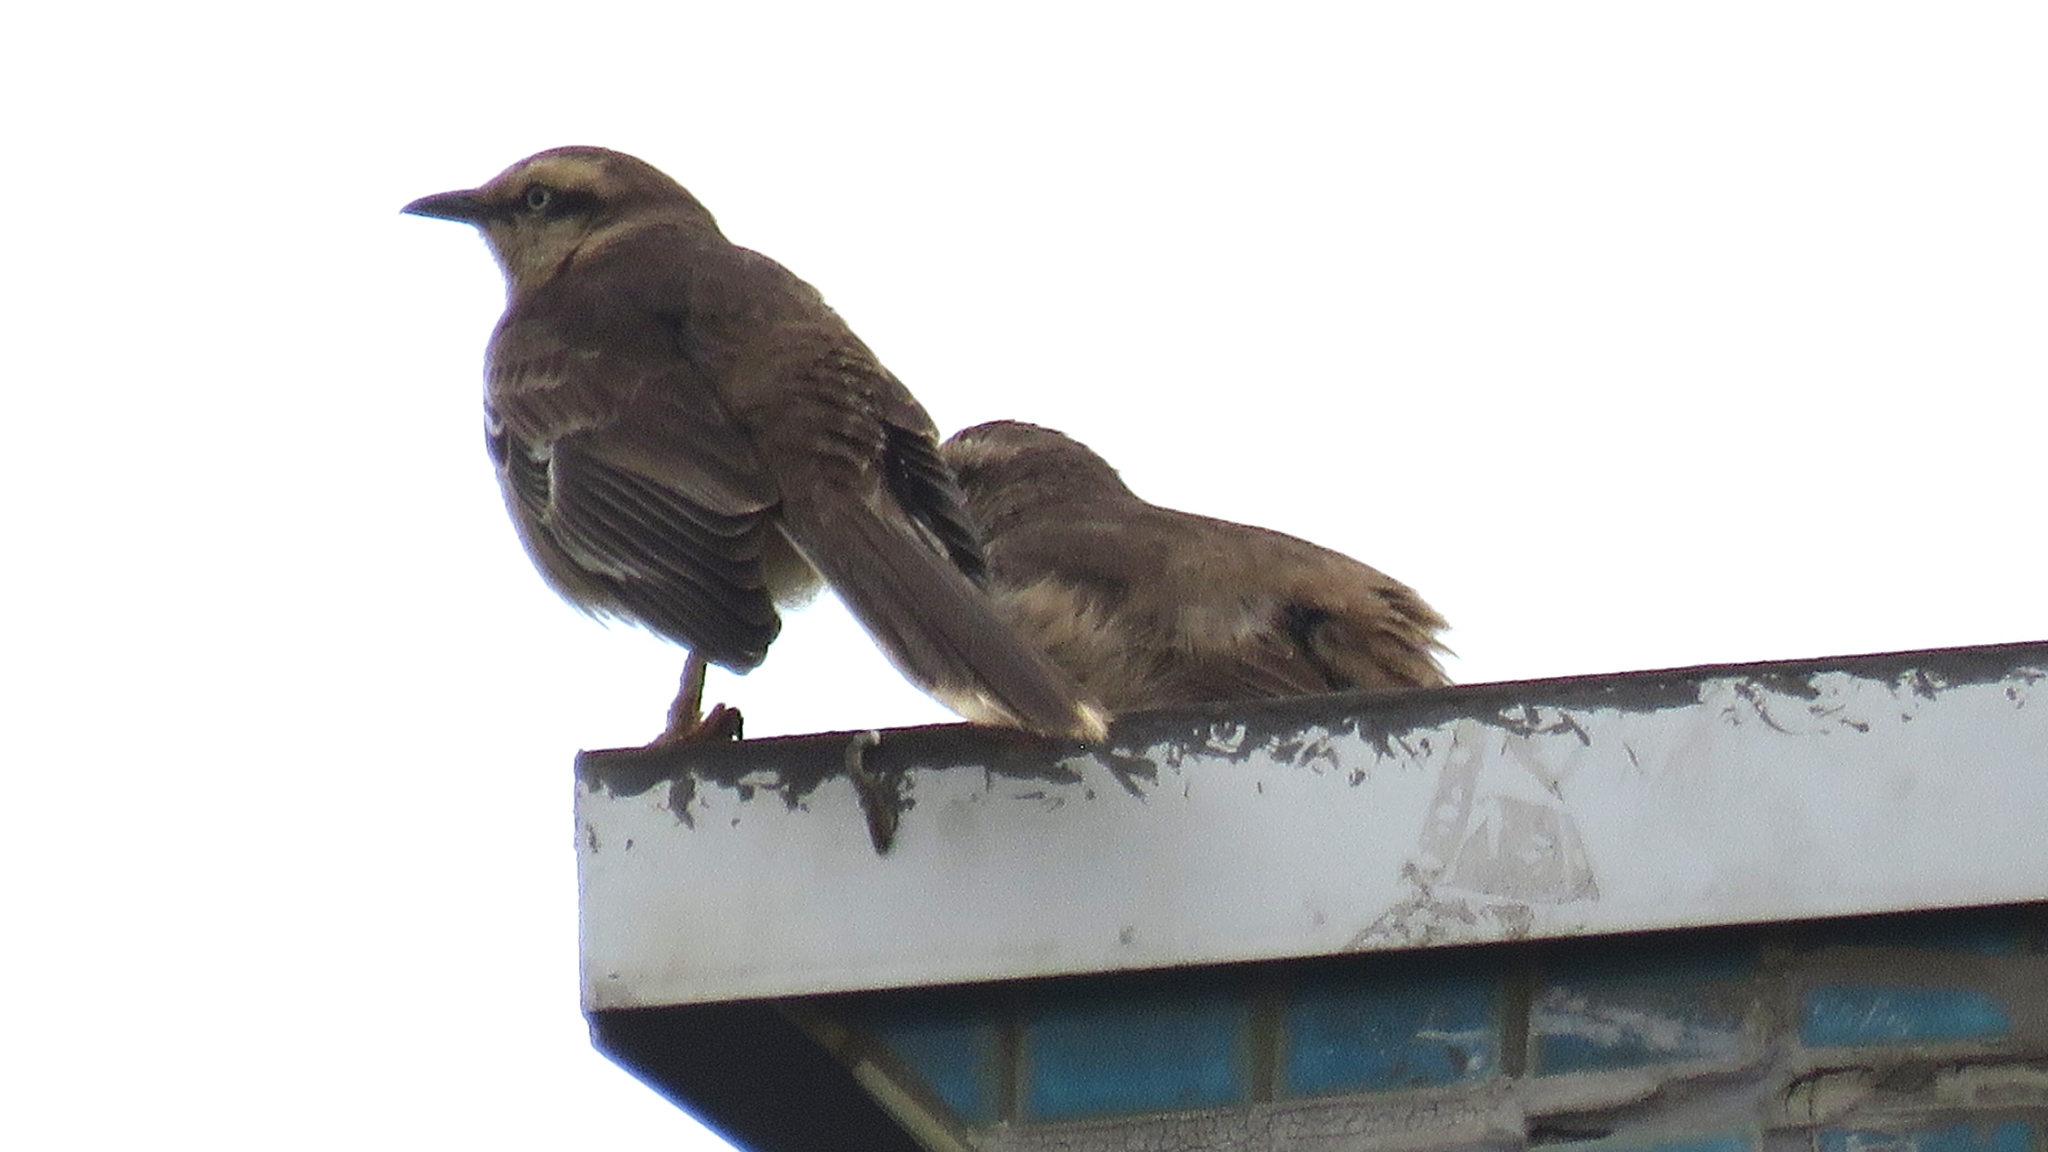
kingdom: Animalia
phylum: Chordata
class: Aves
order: Passeriformes
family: Mimidae
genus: Mimus
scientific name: Mimus saturninus
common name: Chalk-browed mockingbird
